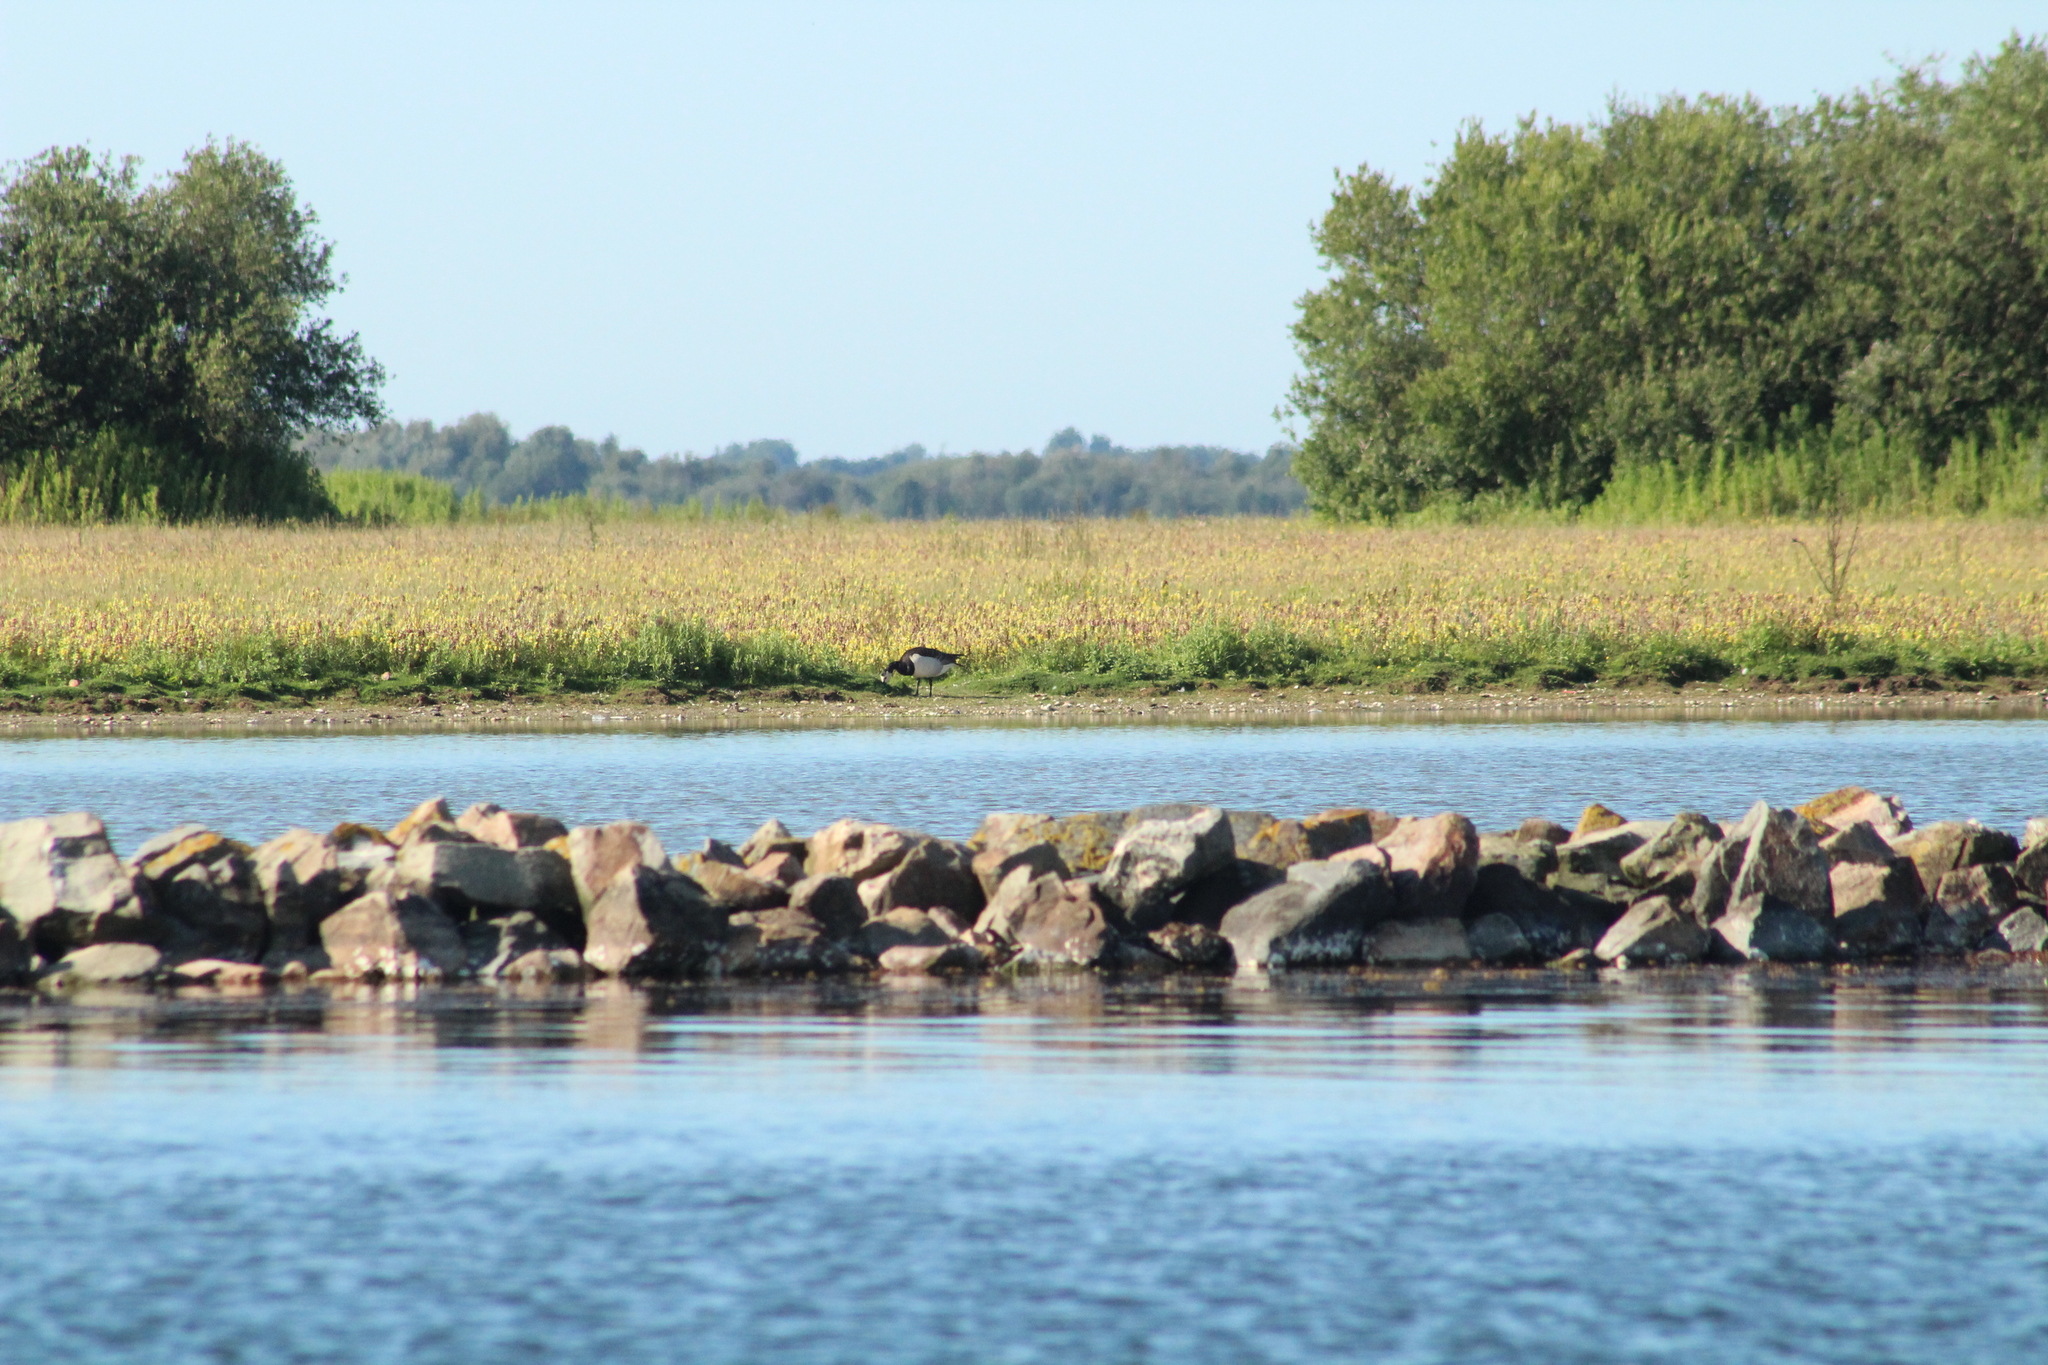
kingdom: Animalia
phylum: Chordata
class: Aves
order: Anseriformes
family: Anatidae
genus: Branta
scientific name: Branta leucopsis
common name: Barnacle goose
